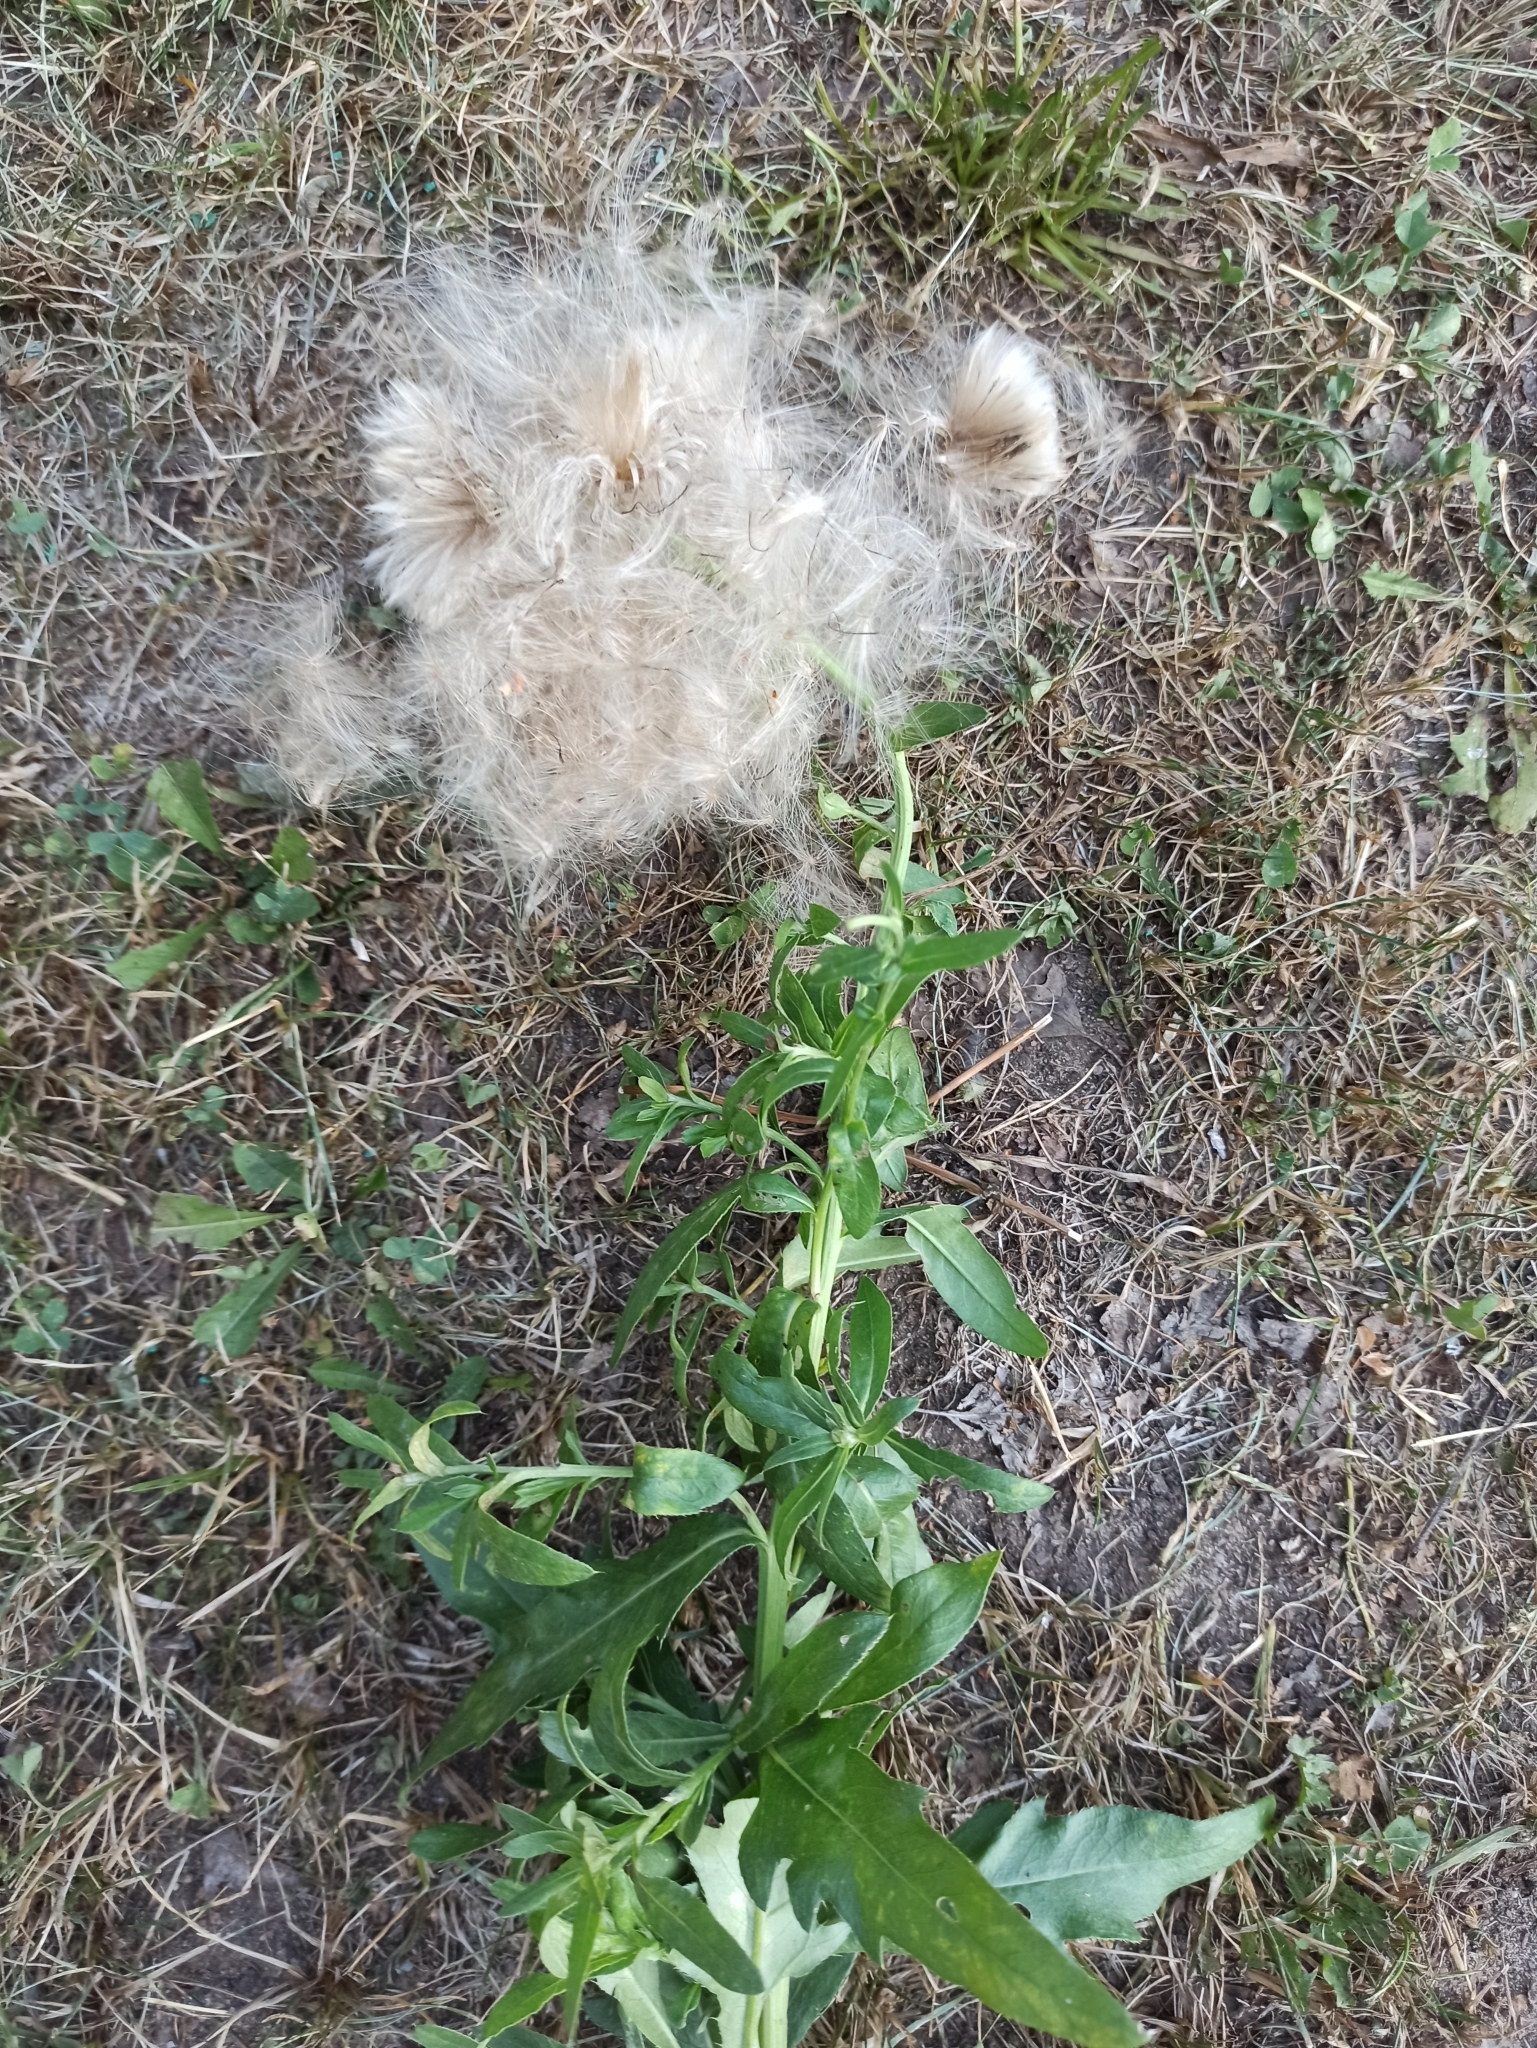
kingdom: Plantae
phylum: Tracheophyta
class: Magnoliopsida
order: Asterales
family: Asteraceae
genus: Cirsium
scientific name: Cirsium arvense
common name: Creeping thistle
